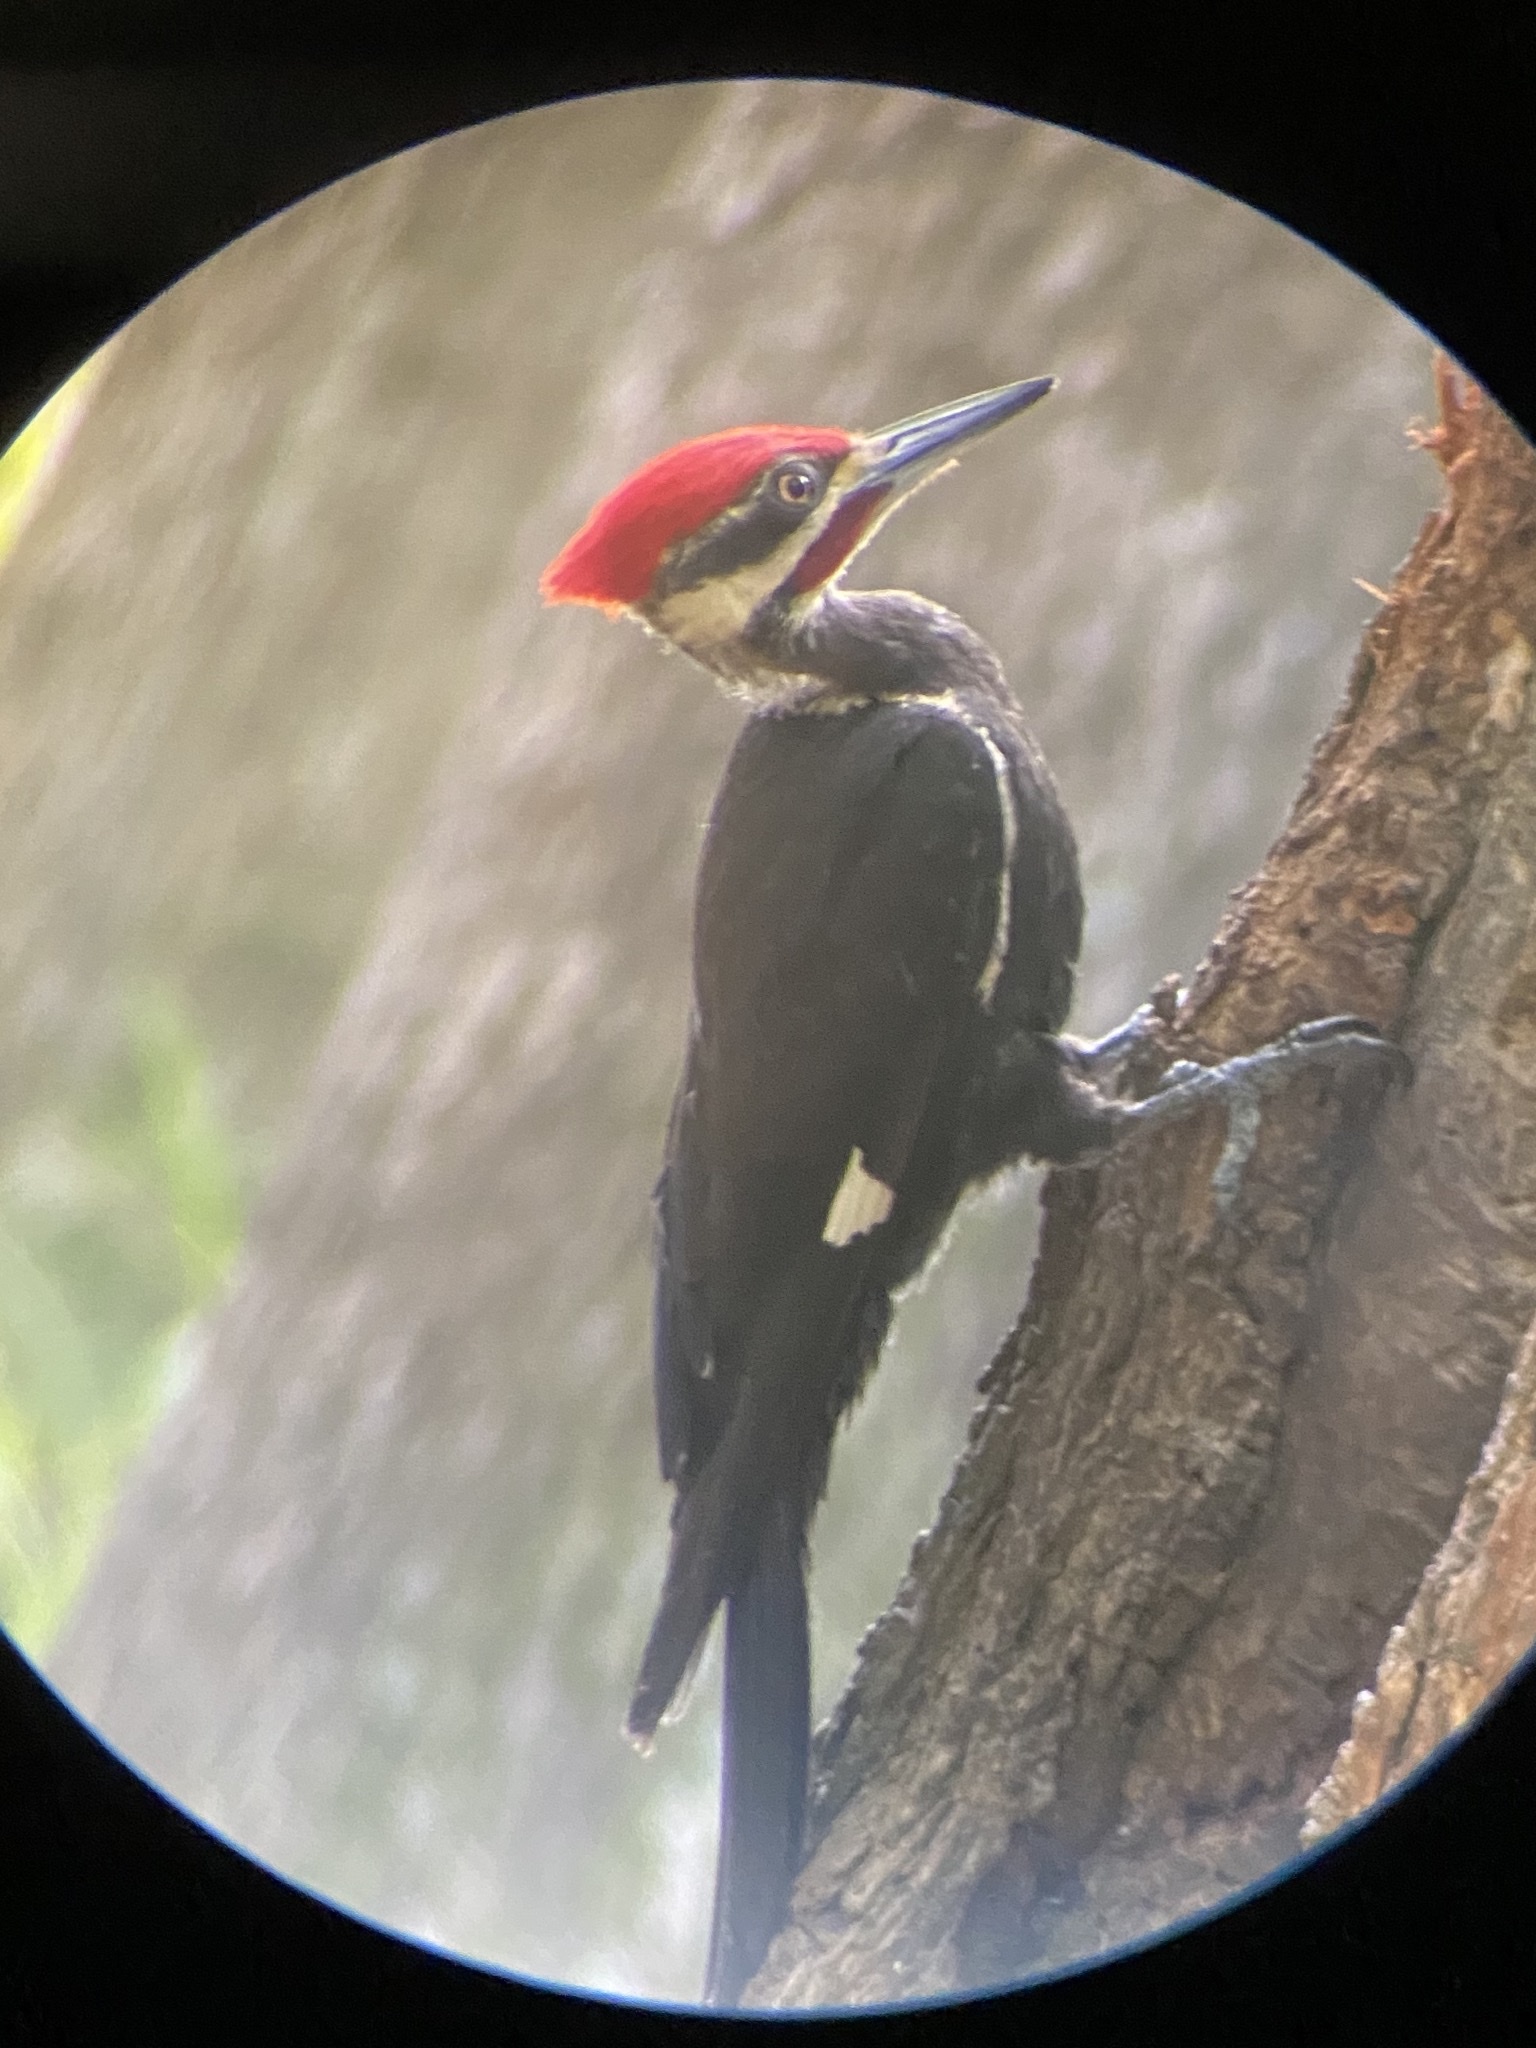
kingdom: Animalia
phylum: Chordata
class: Aves
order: Piciformes
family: Picidae
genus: Dryocopus
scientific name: Dryocopus pileatus
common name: Pileated woodpecker
